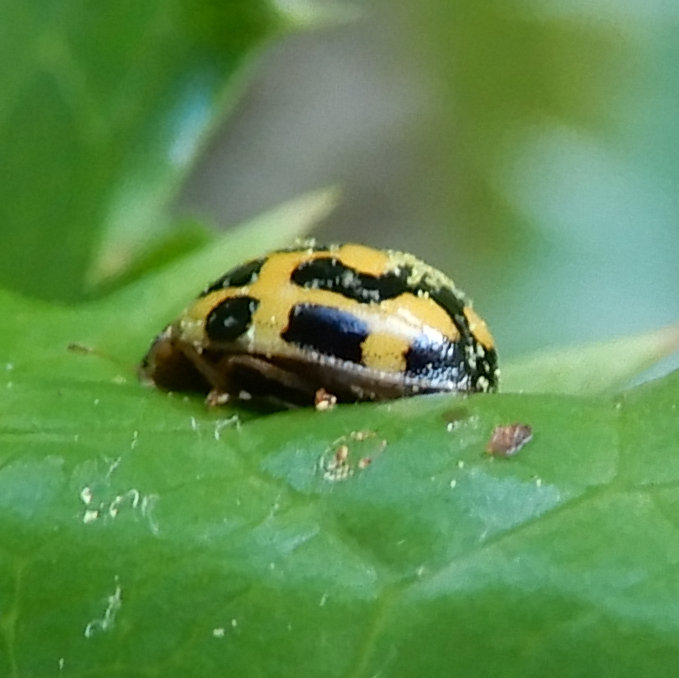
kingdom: Animalia
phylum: Arthropoda
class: Insecta
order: Coleoptera
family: Coccinellidae
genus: Propylaea
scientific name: Propylaea quatuordecimpunctata
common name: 14-spotted ladybird beetle
